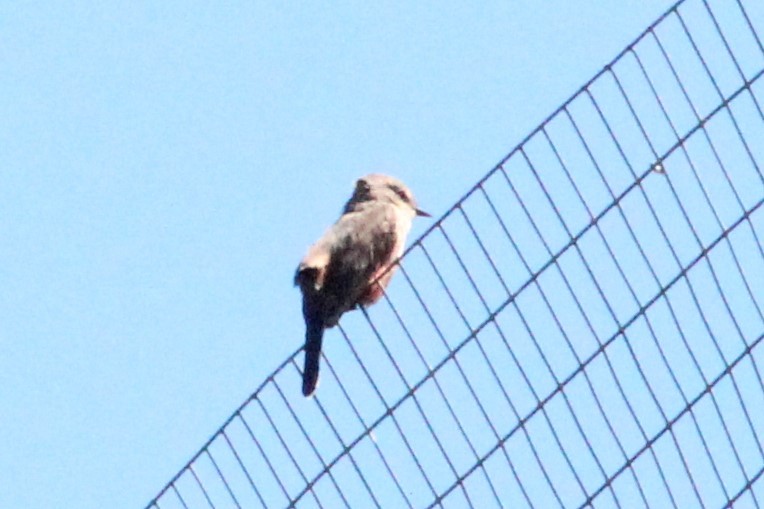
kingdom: Animalia
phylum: Chordata
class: Aves
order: Passeriformes
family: Tyrannidae
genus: Pyrocephalus
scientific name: Pyrocephalus rubinus
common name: Vermilion flycatcher
